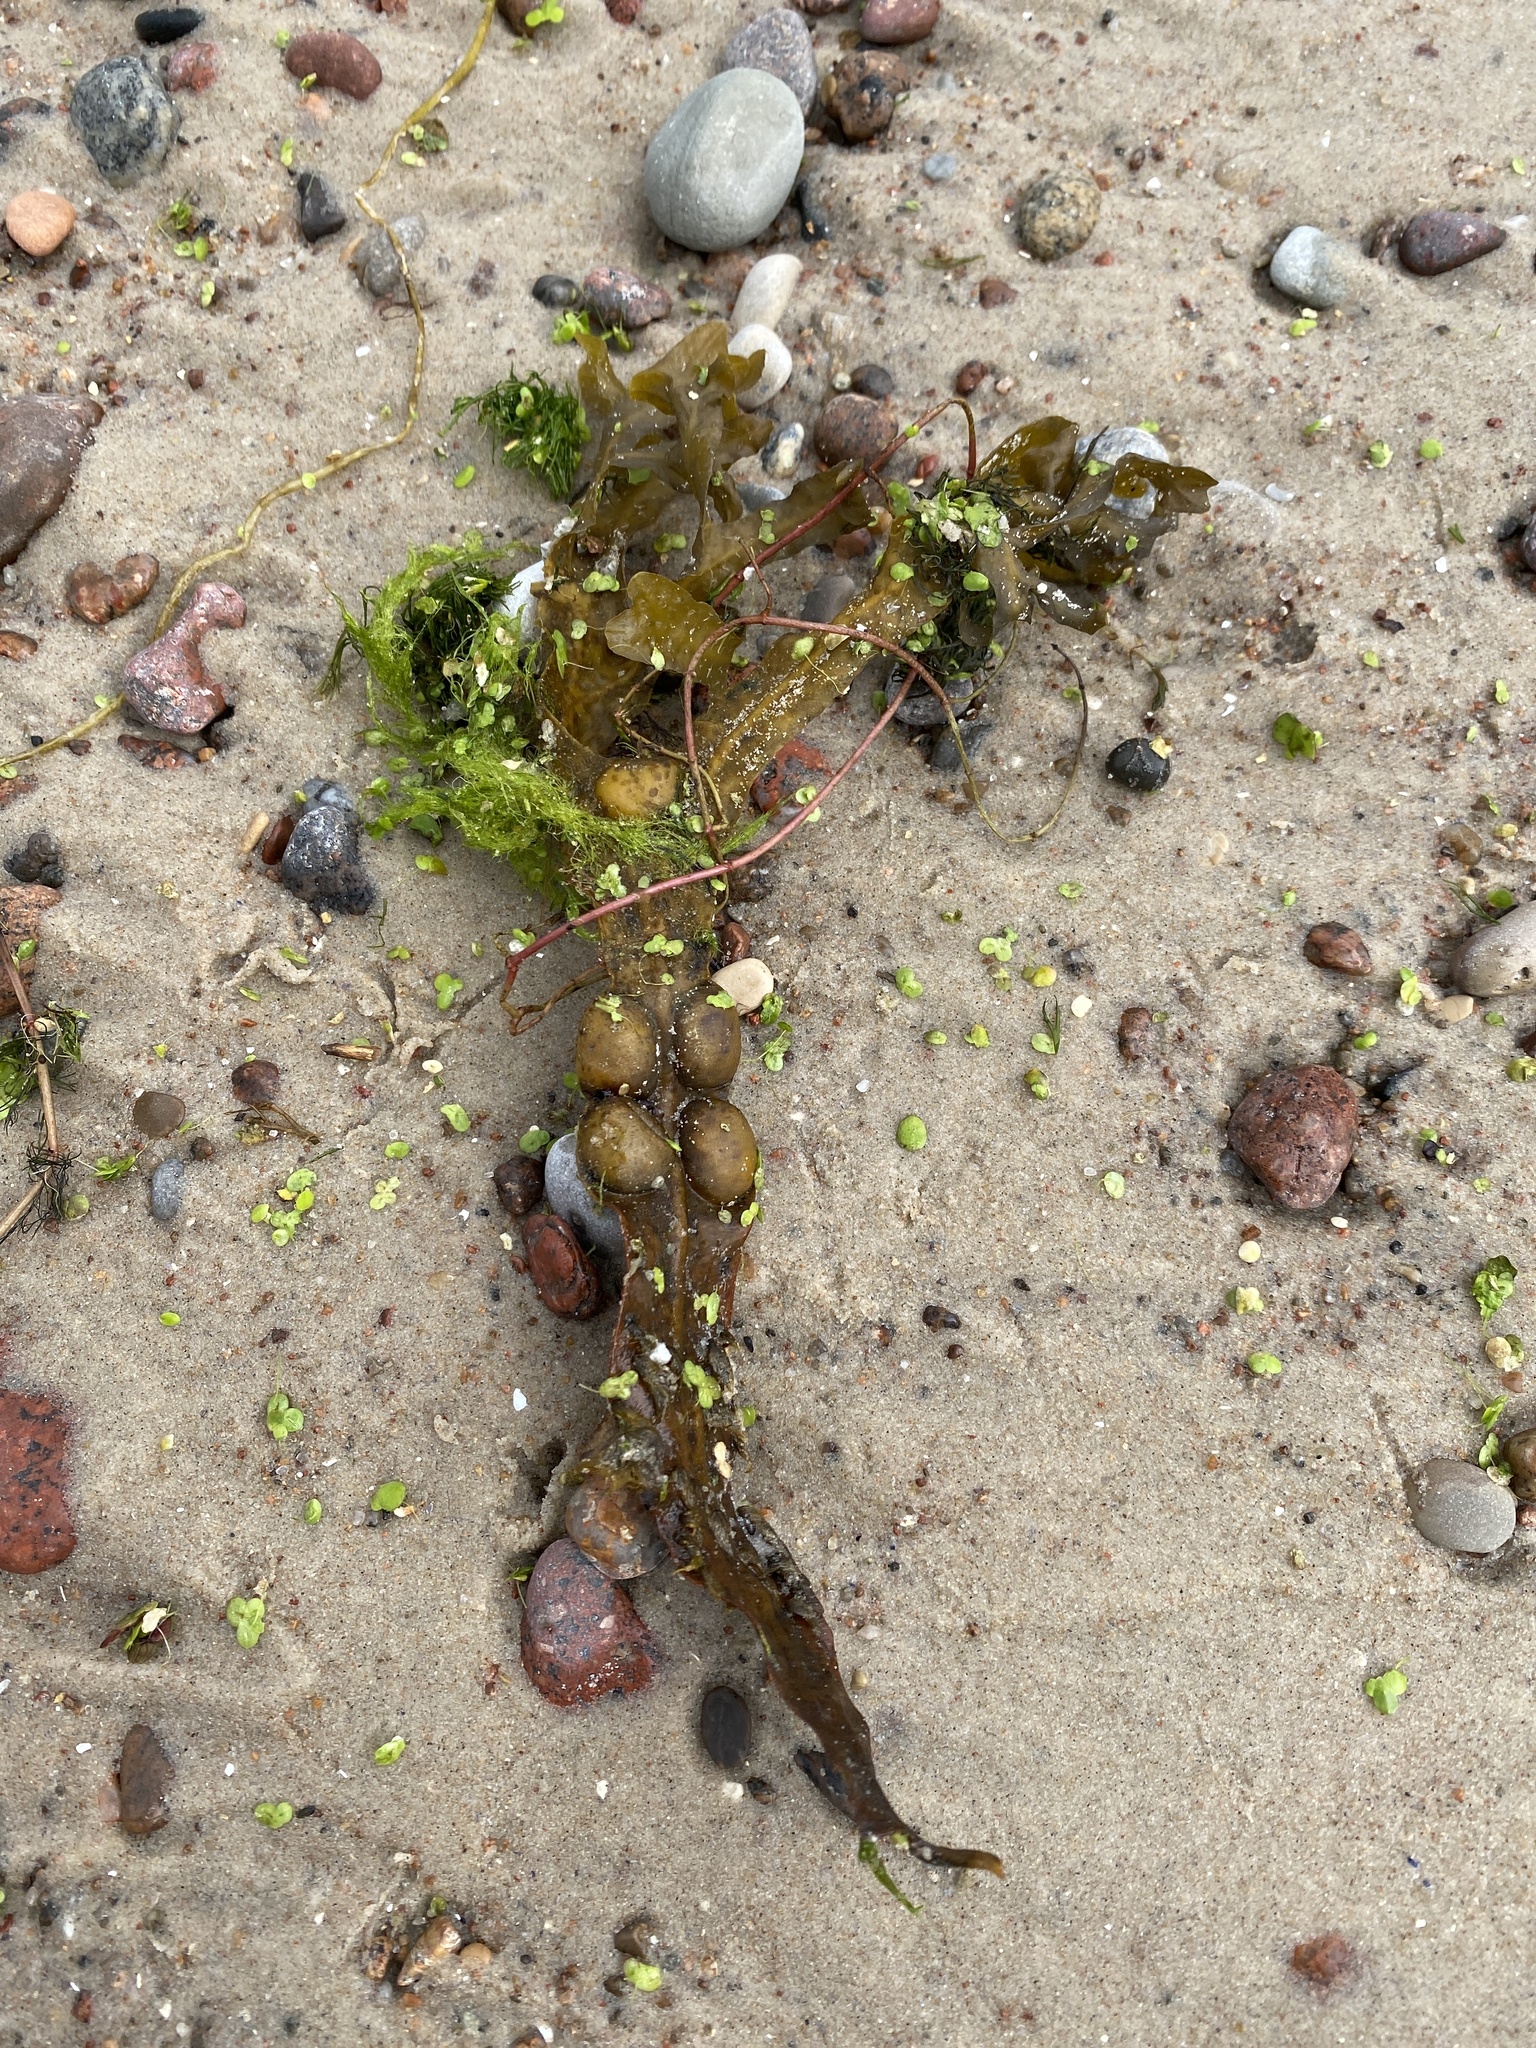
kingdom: Chromista
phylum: Ochrophyta
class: Phaeophyceae
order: Fucales
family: Fucaceae
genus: Fucus
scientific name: Fucus vesiculosus
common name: Bladder wrack
